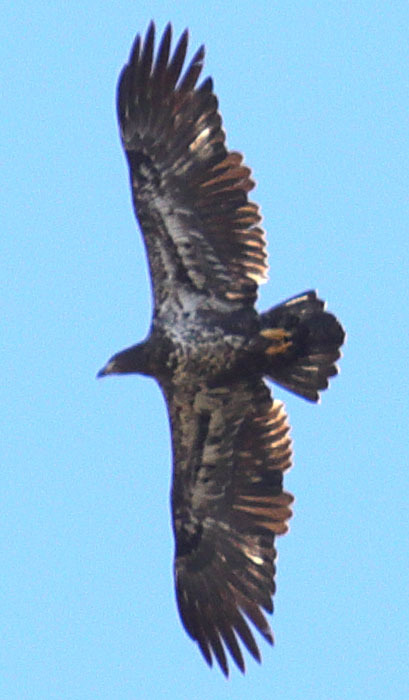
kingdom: Animalia
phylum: Chordata
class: Aves
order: Accipitriformes
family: Accipitridae
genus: Haliaeetus
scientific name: Haliaeetus leucocephalus
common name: Bald eagle
